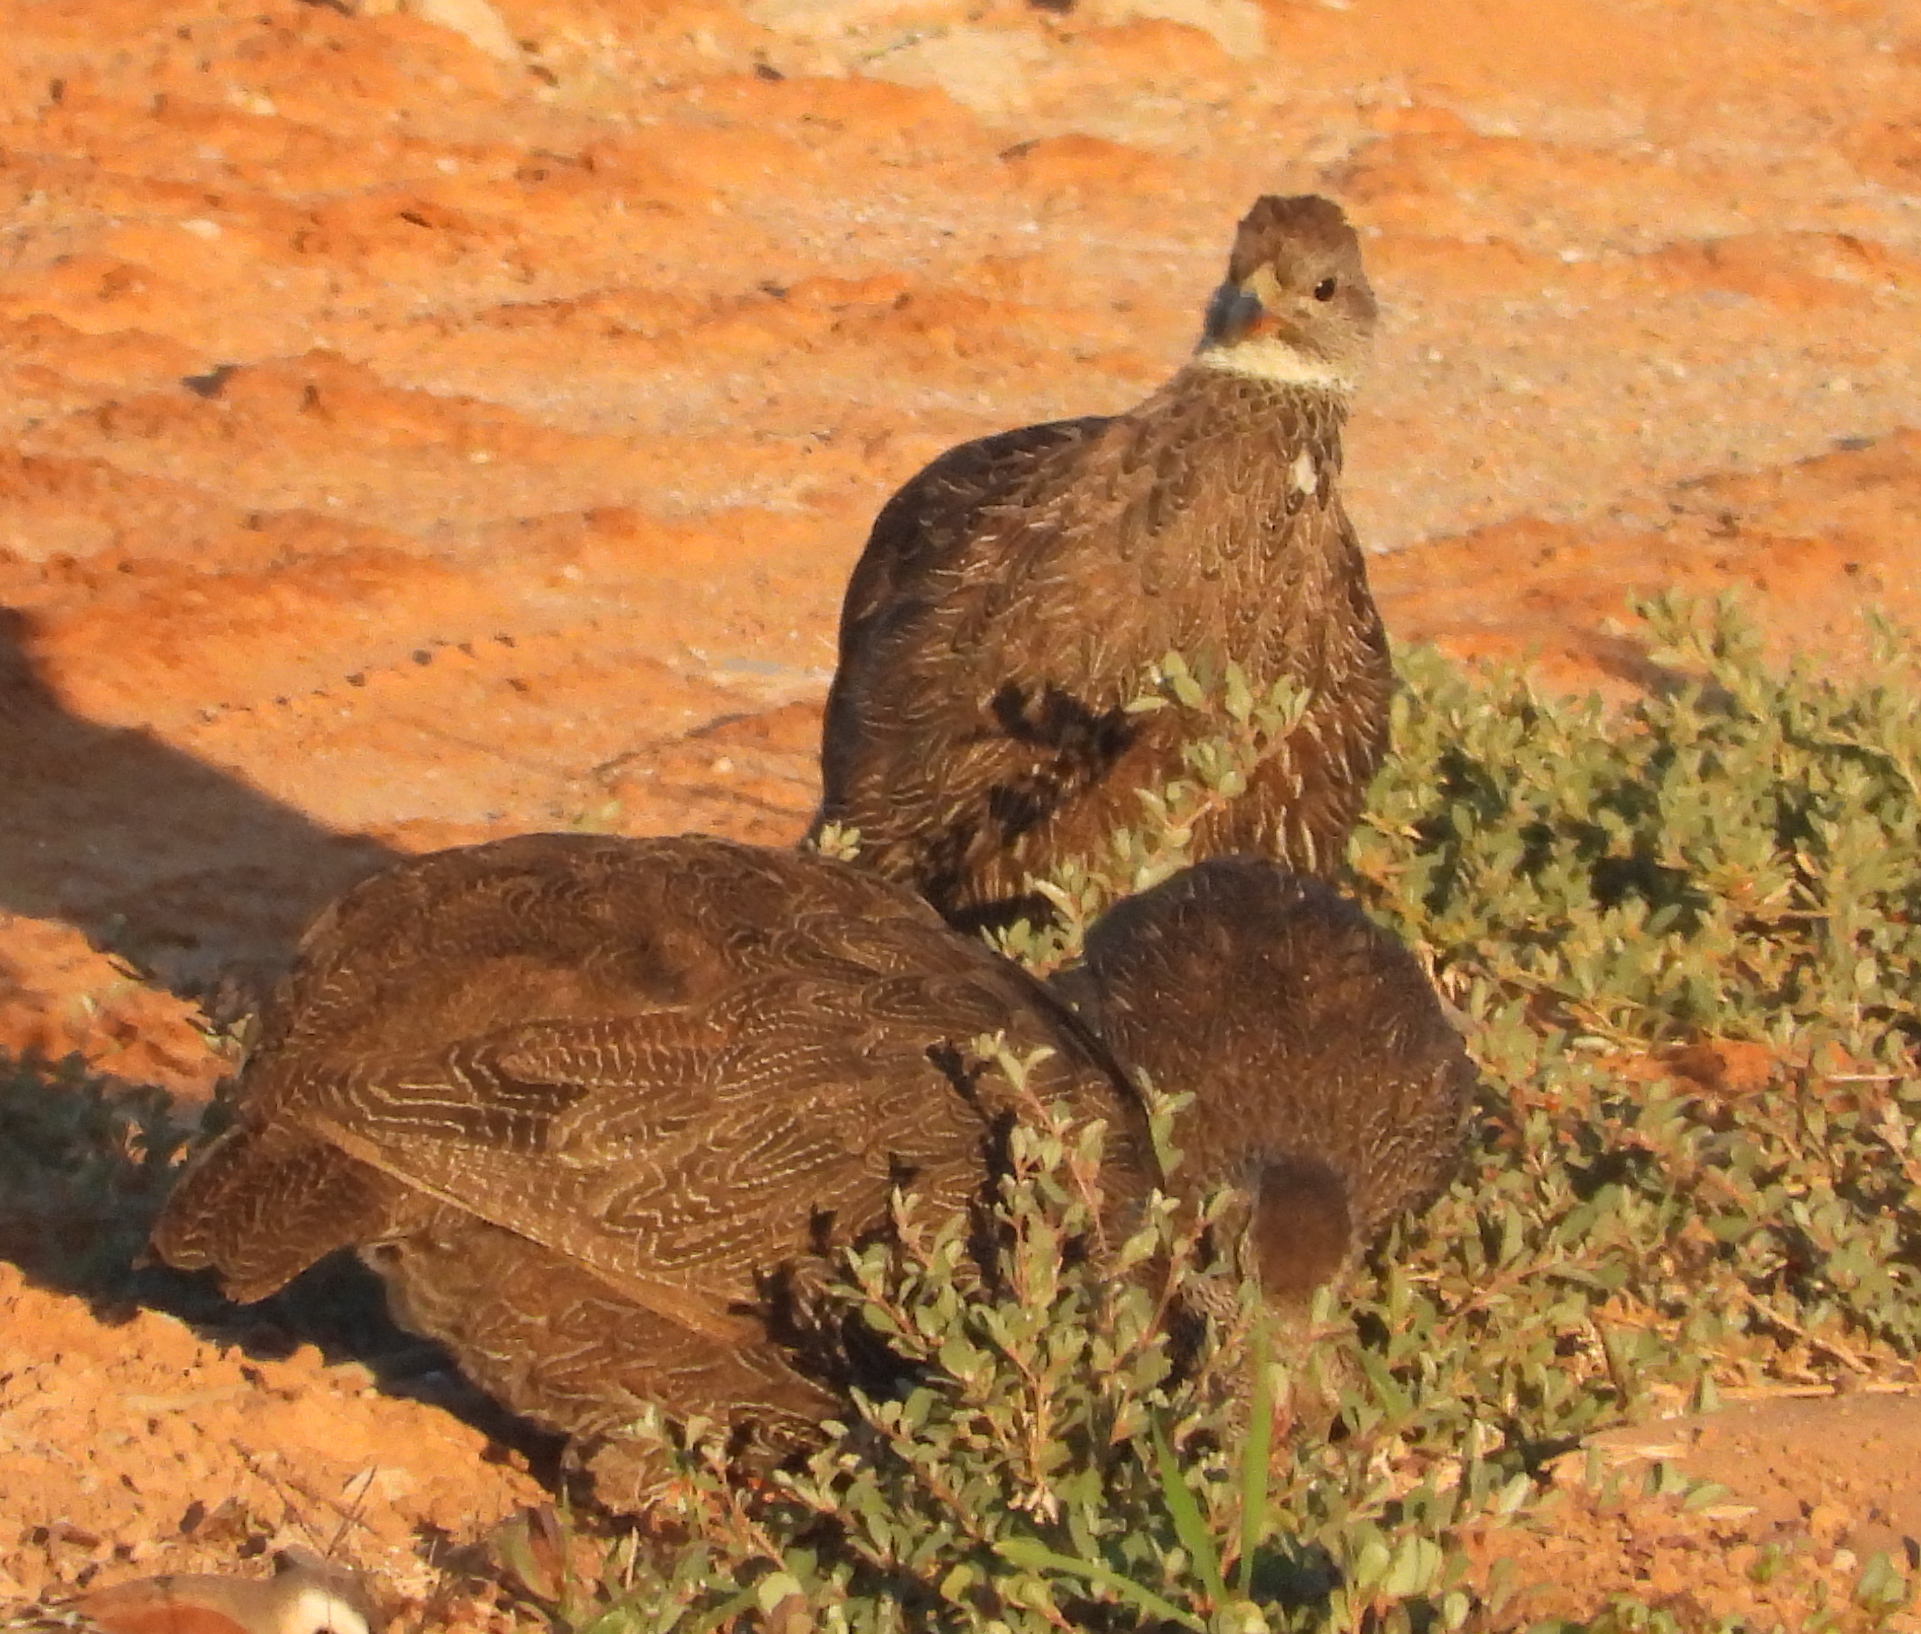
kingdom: Animalia
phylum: Chordata
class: Aves
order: Galliformes
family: Phasianidae
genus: Pternistis
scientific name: Pternistis capensis
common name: Cape spurfowl
